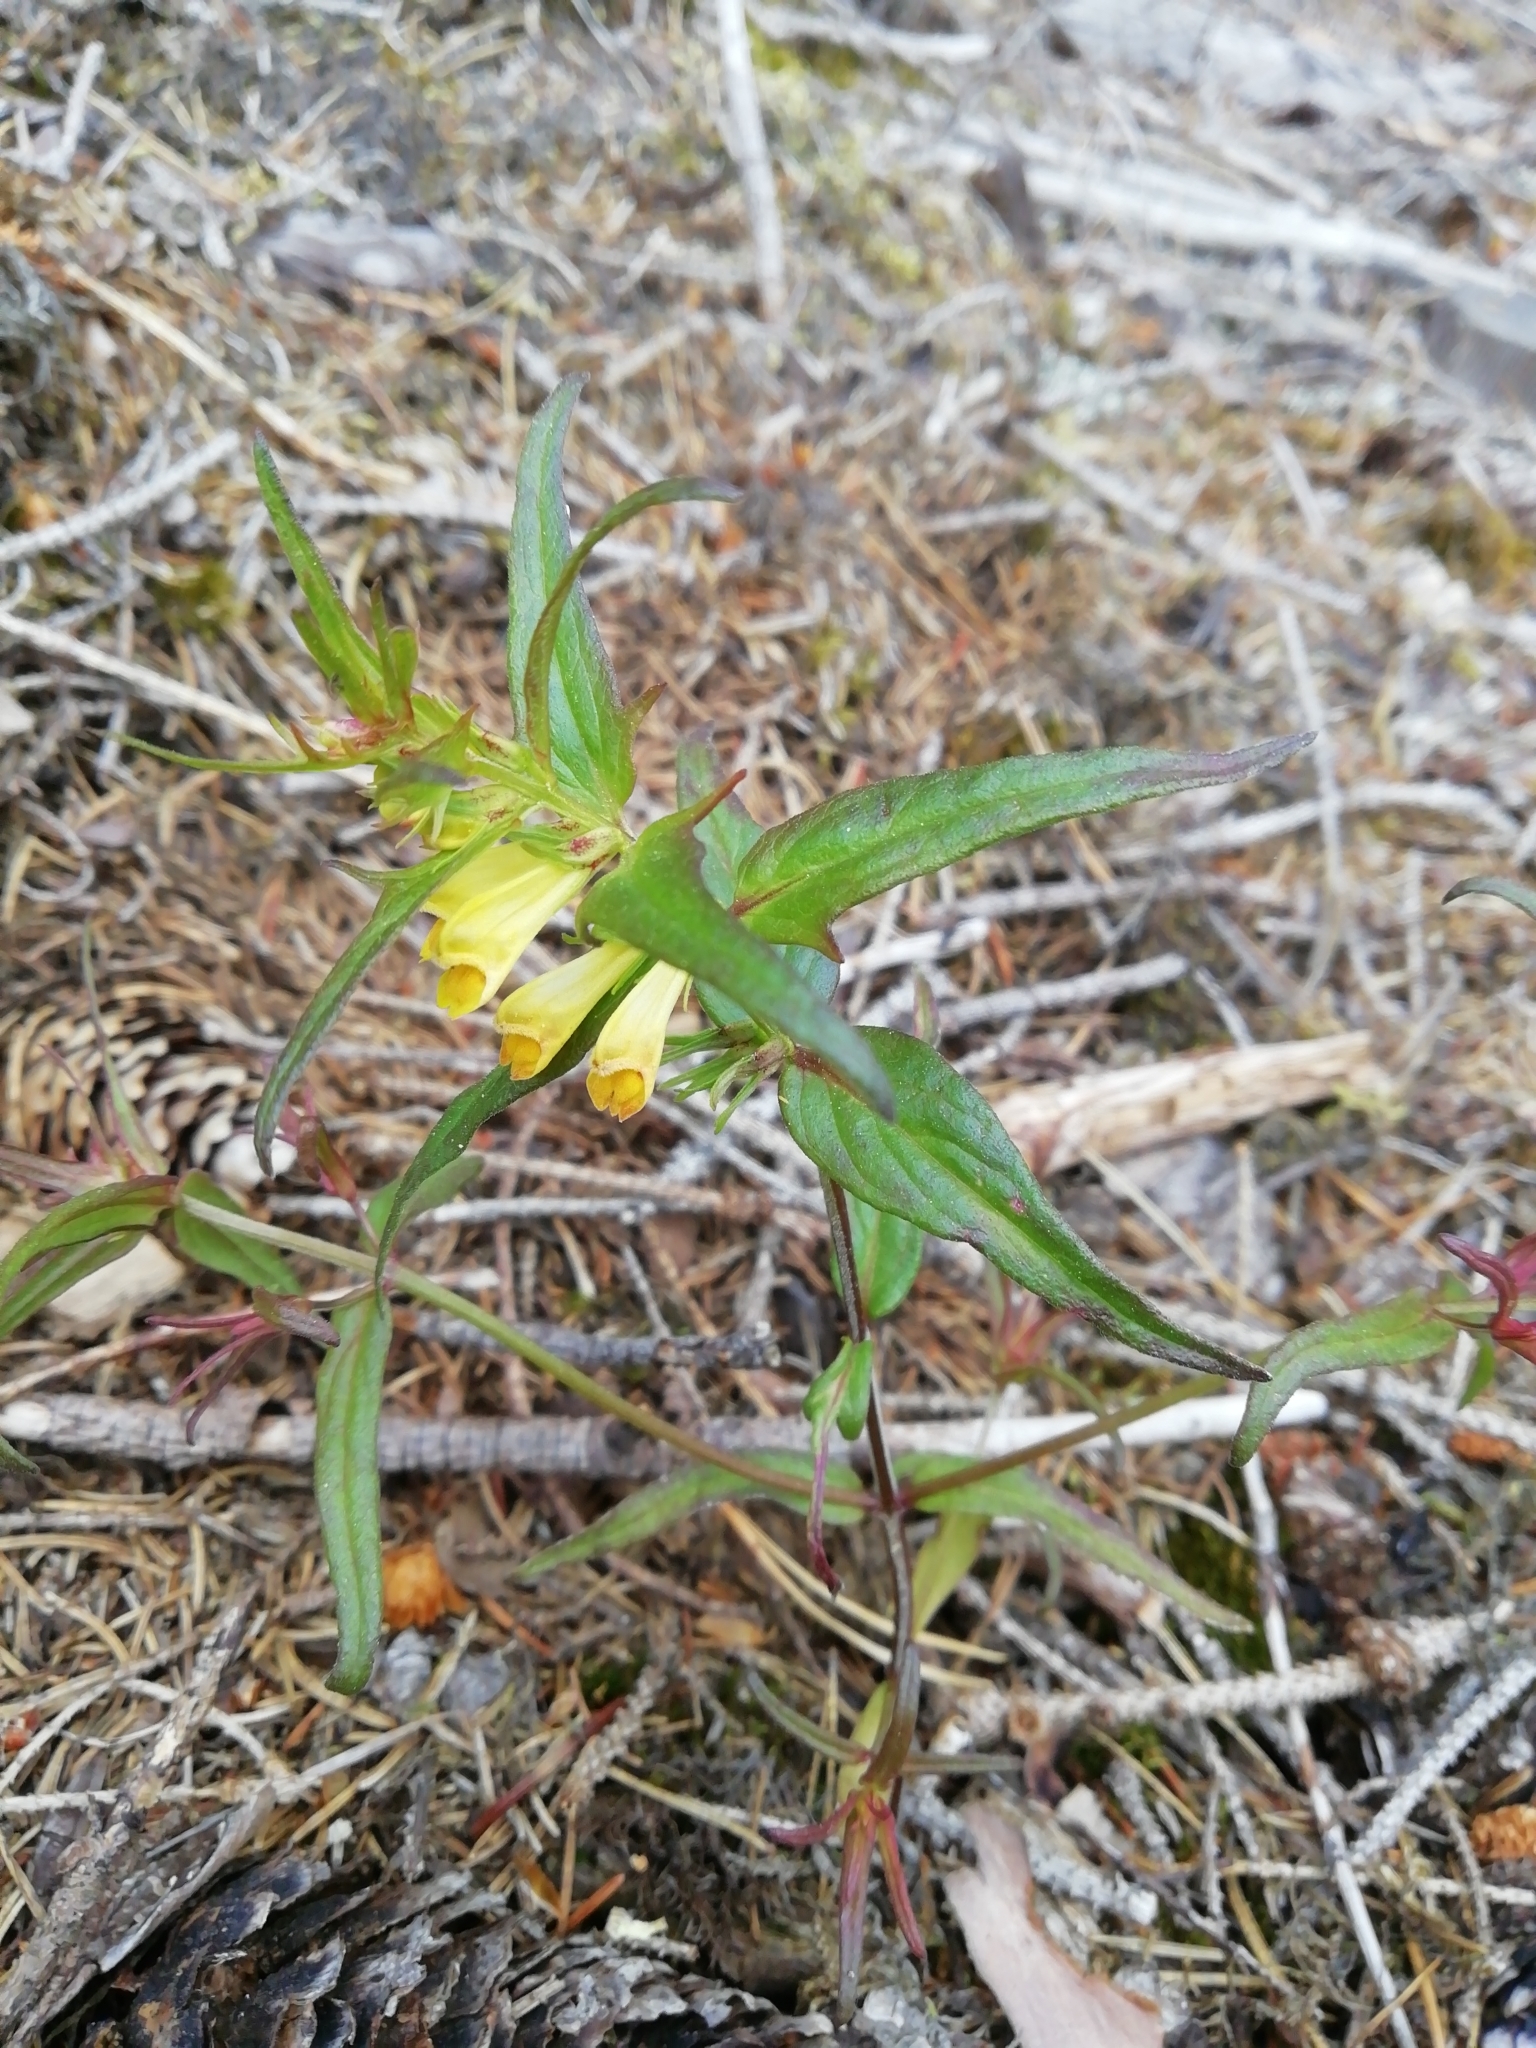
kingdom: Plantae
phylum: Tracheophyta
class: Magnoliopsida
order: Lamiales
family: Orobanchaceae
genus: Melampyrum
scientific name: Melampyrum pratense
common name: Common cow-wheat
